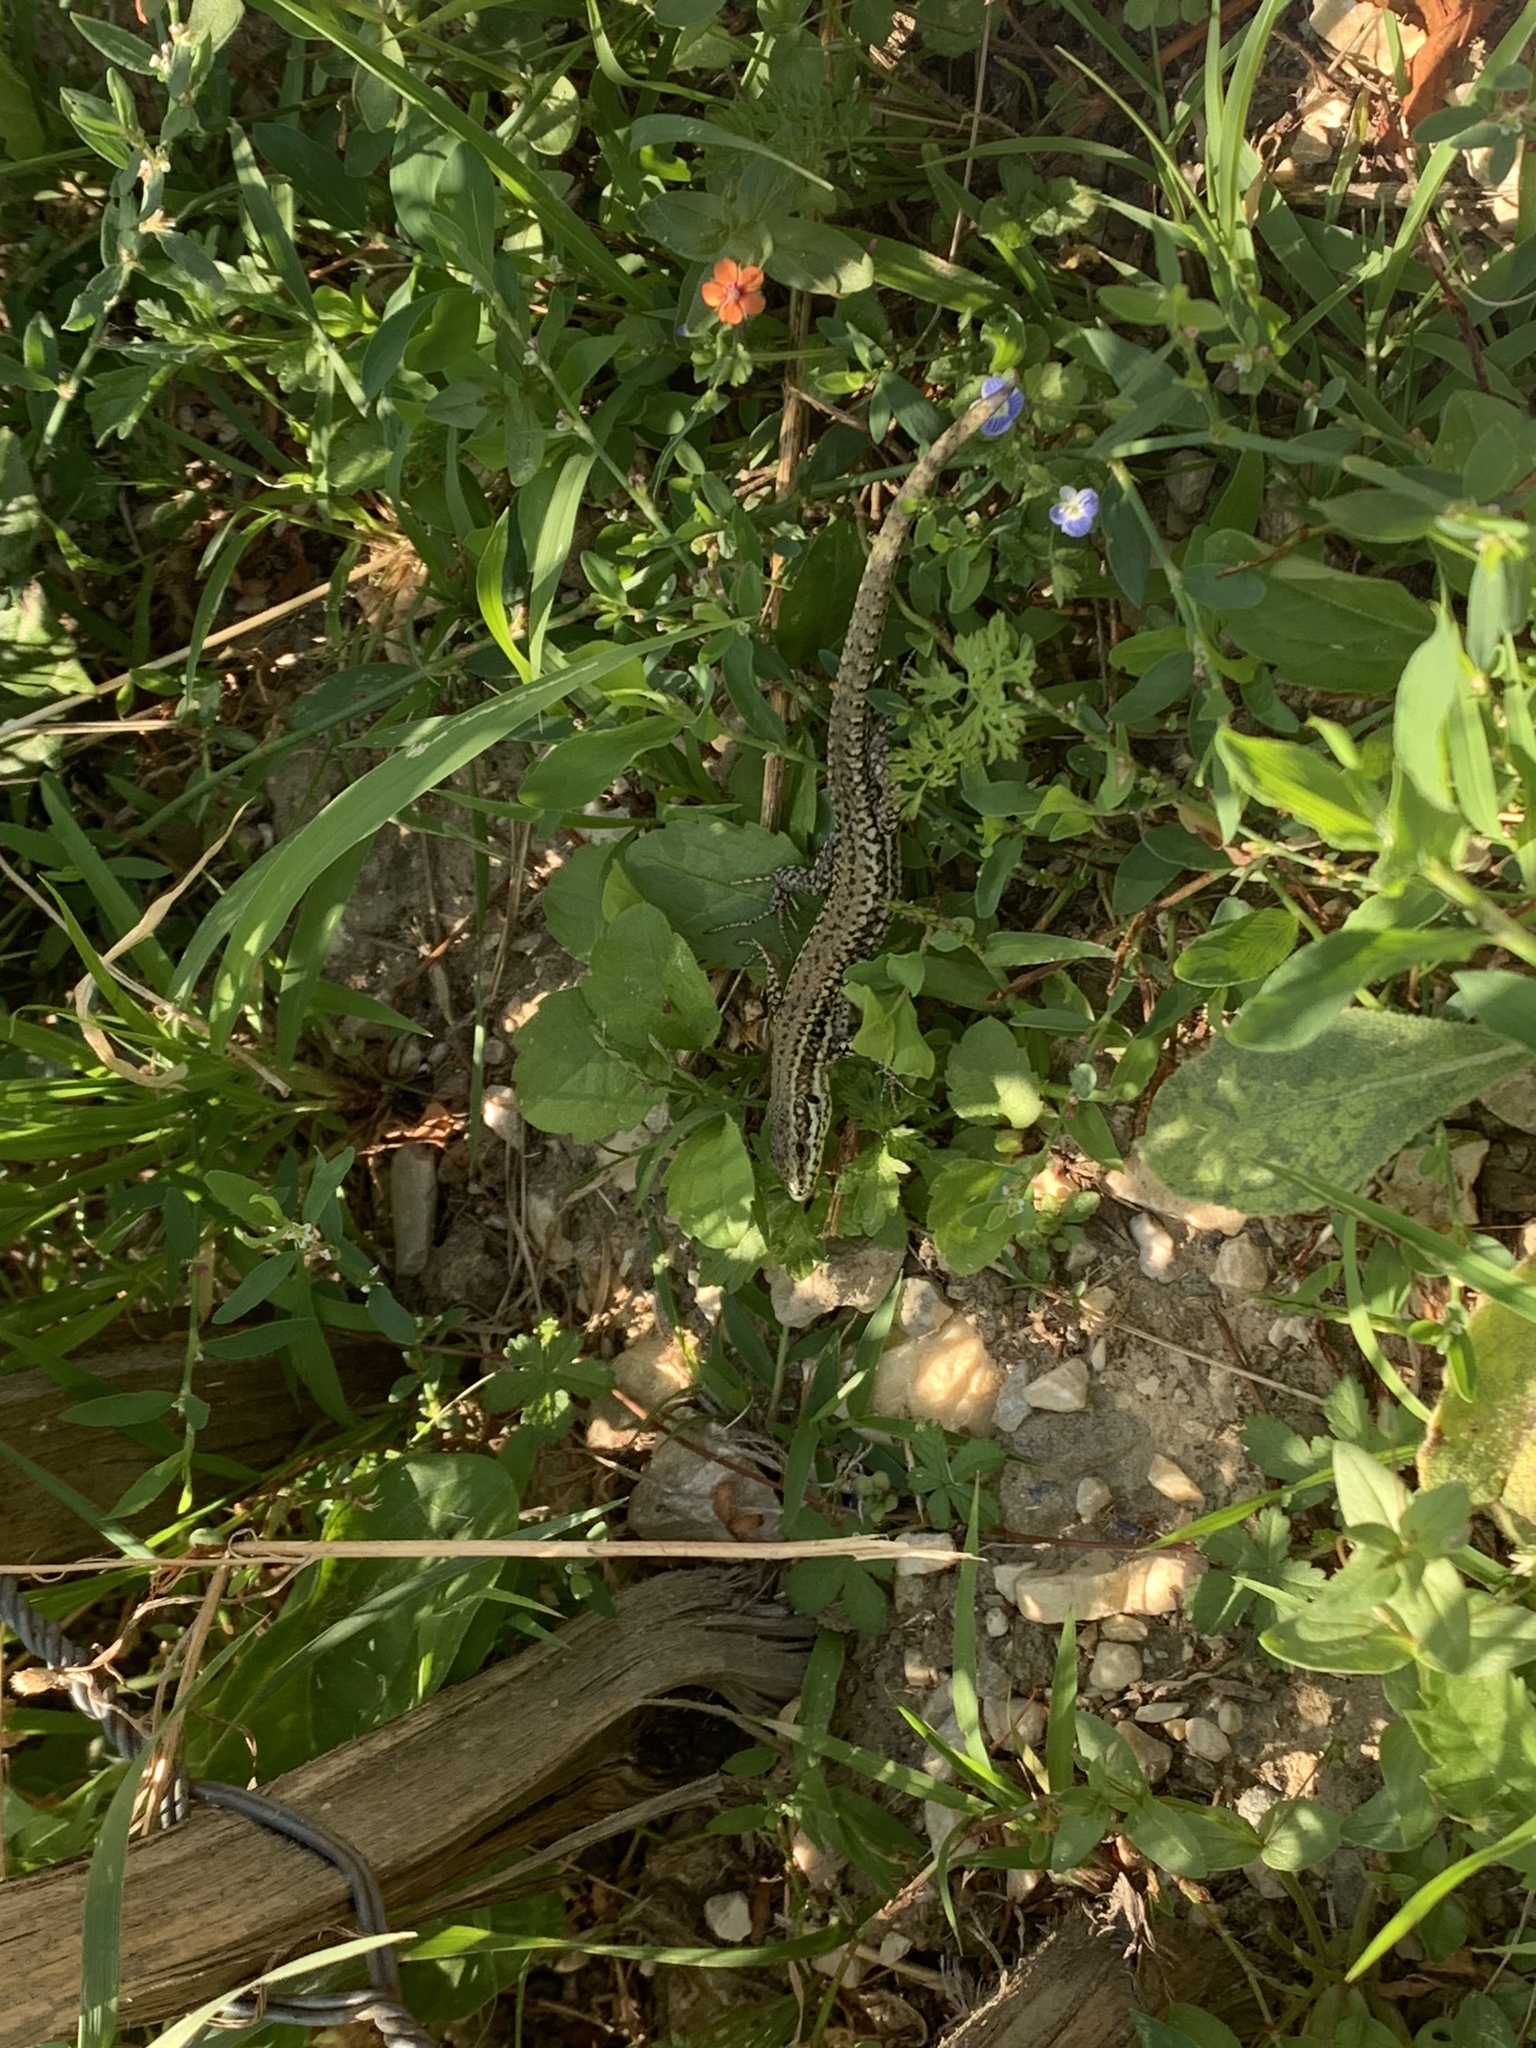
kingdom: Animalia
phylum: Chordata
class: Squamata
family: Lacertidae
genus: Podarcis
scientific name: Podarcis muralis
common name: Common wall lizard
